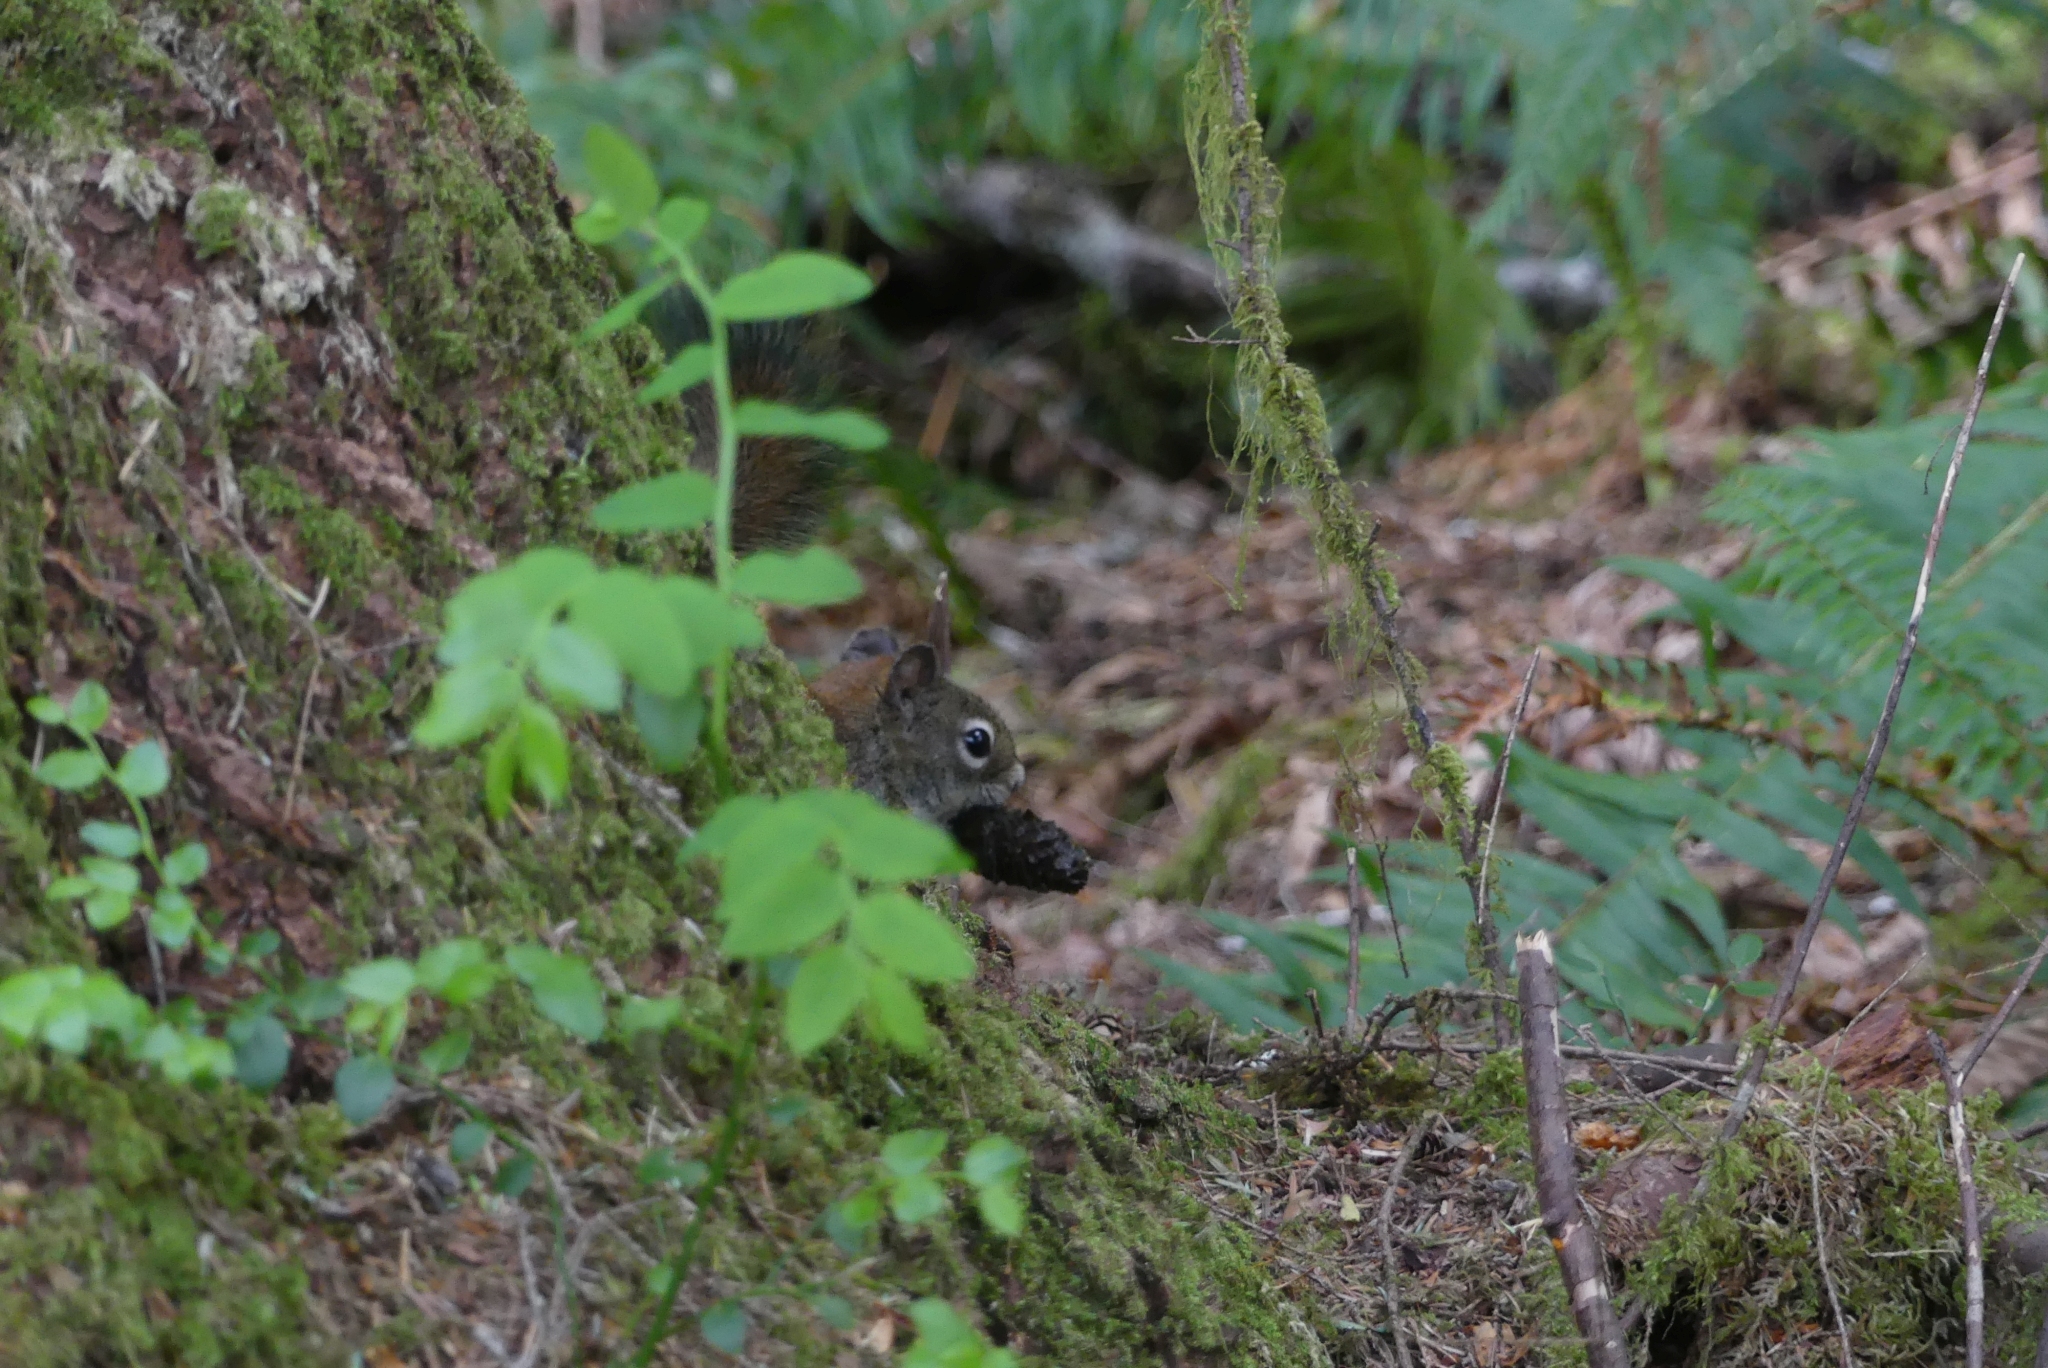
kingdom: Animalia
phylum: Chordata
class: Mammalia
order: Rodentia
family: Sciuridae
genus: Tamiasciurus
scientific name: Tamiasciurus hudsonicus
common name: Red squirrel
